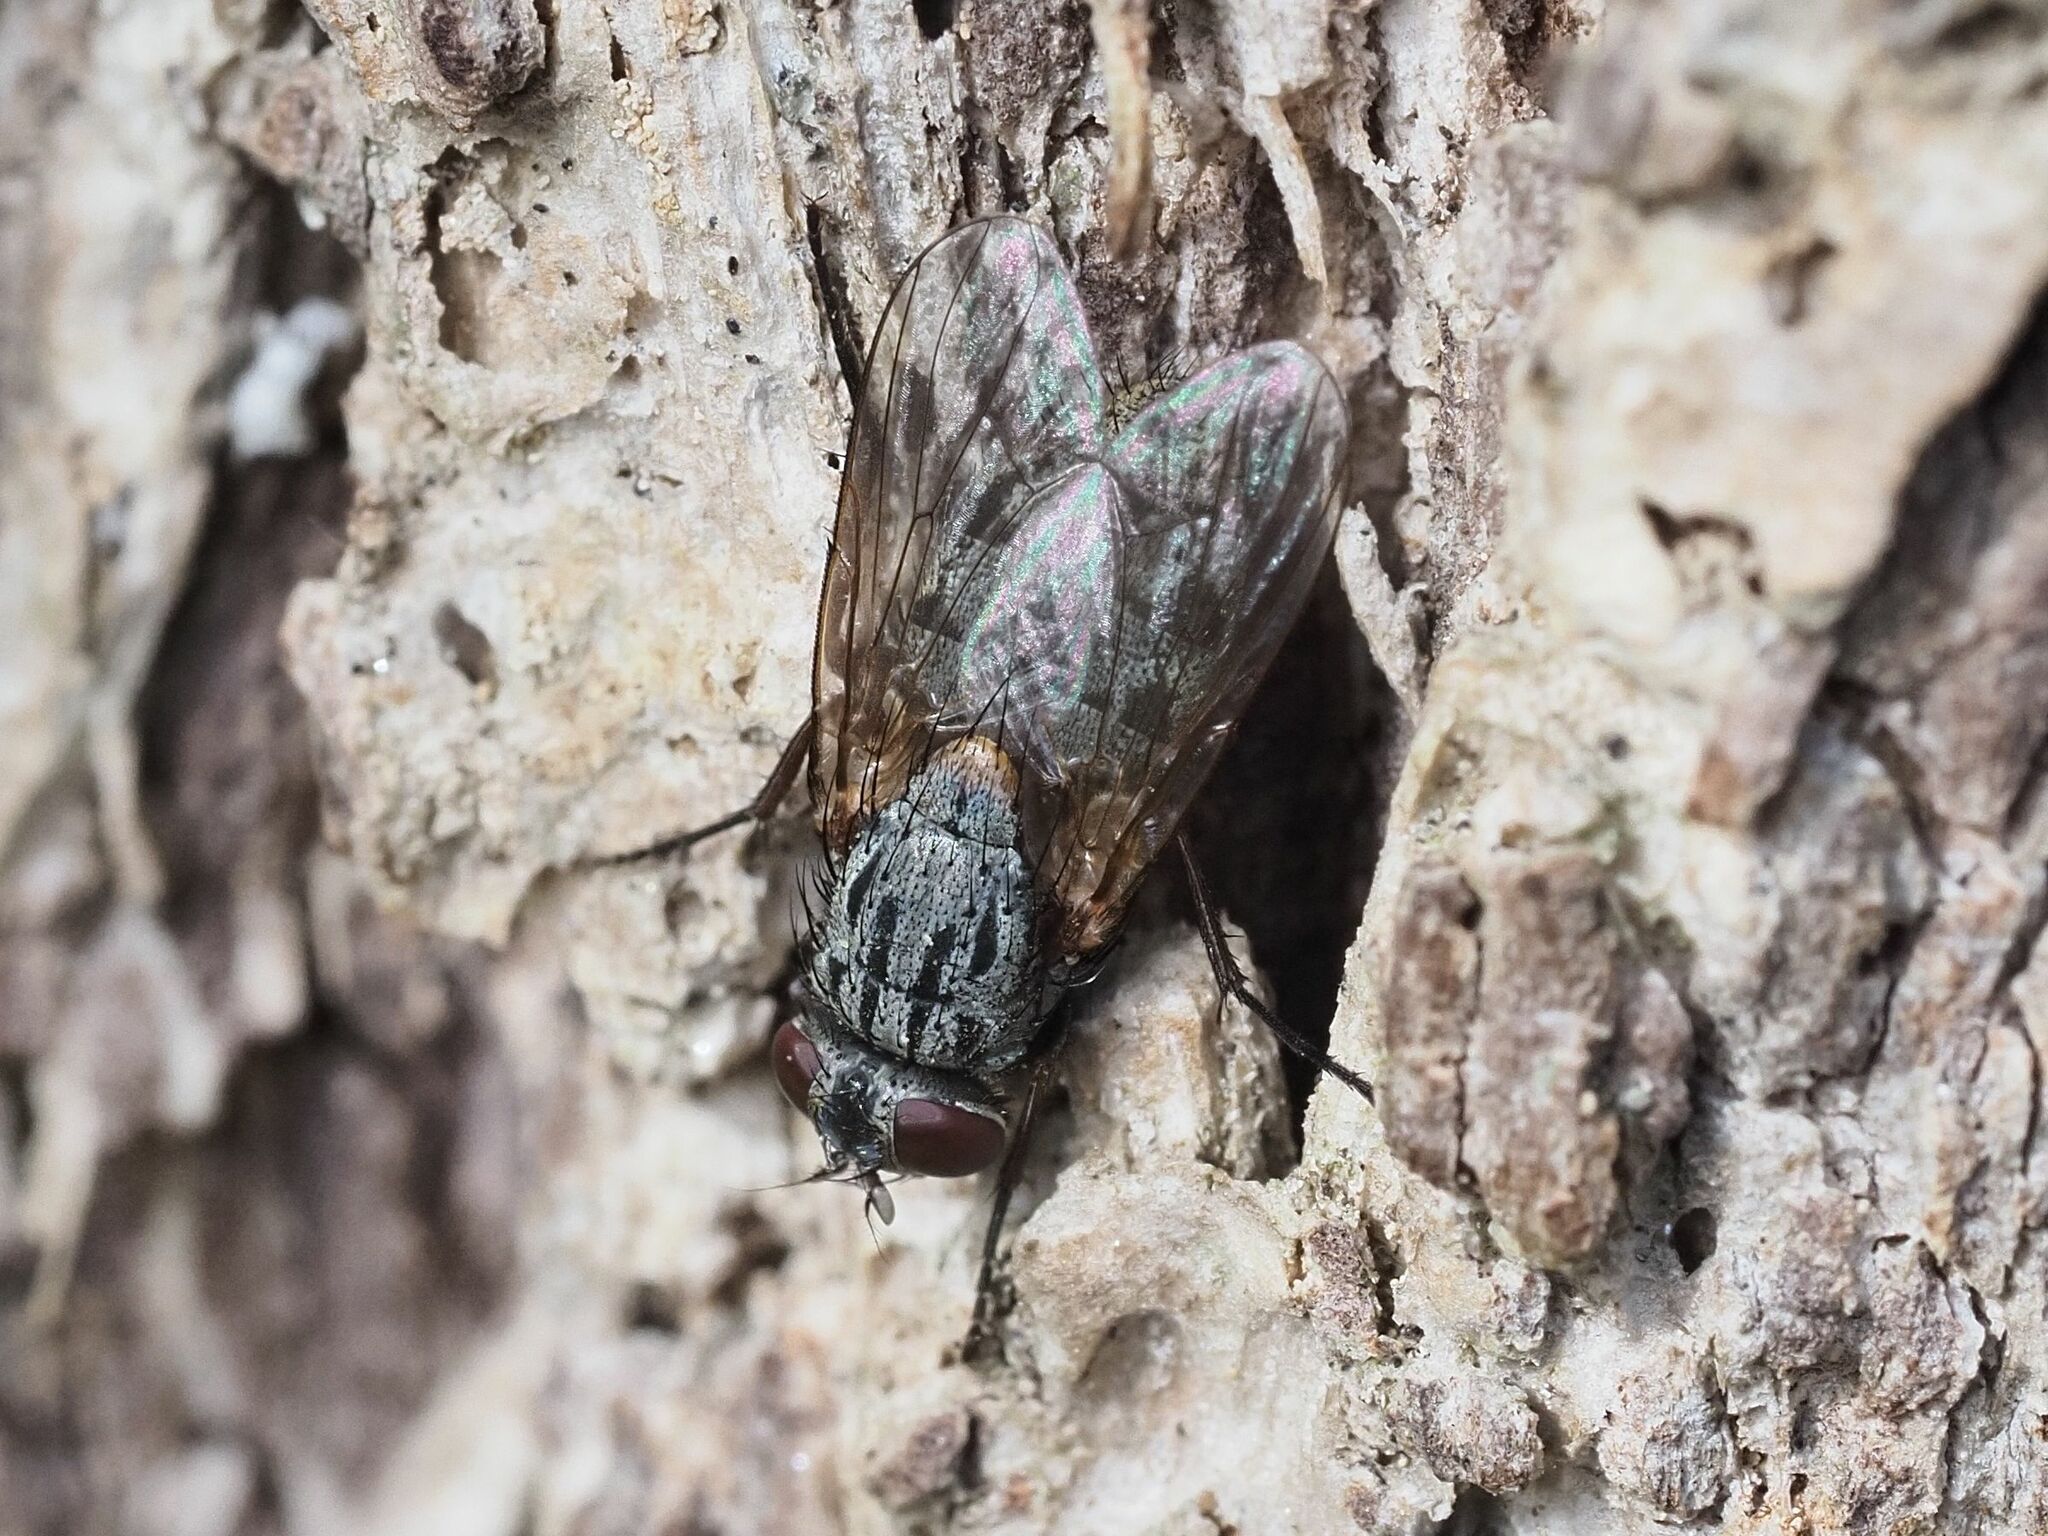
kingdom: Animalia
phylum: Arthropoda
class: Insecta
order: Diptera
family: Muscidae
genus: Muscina
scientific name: Muscina stabulans
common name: False stable fly
